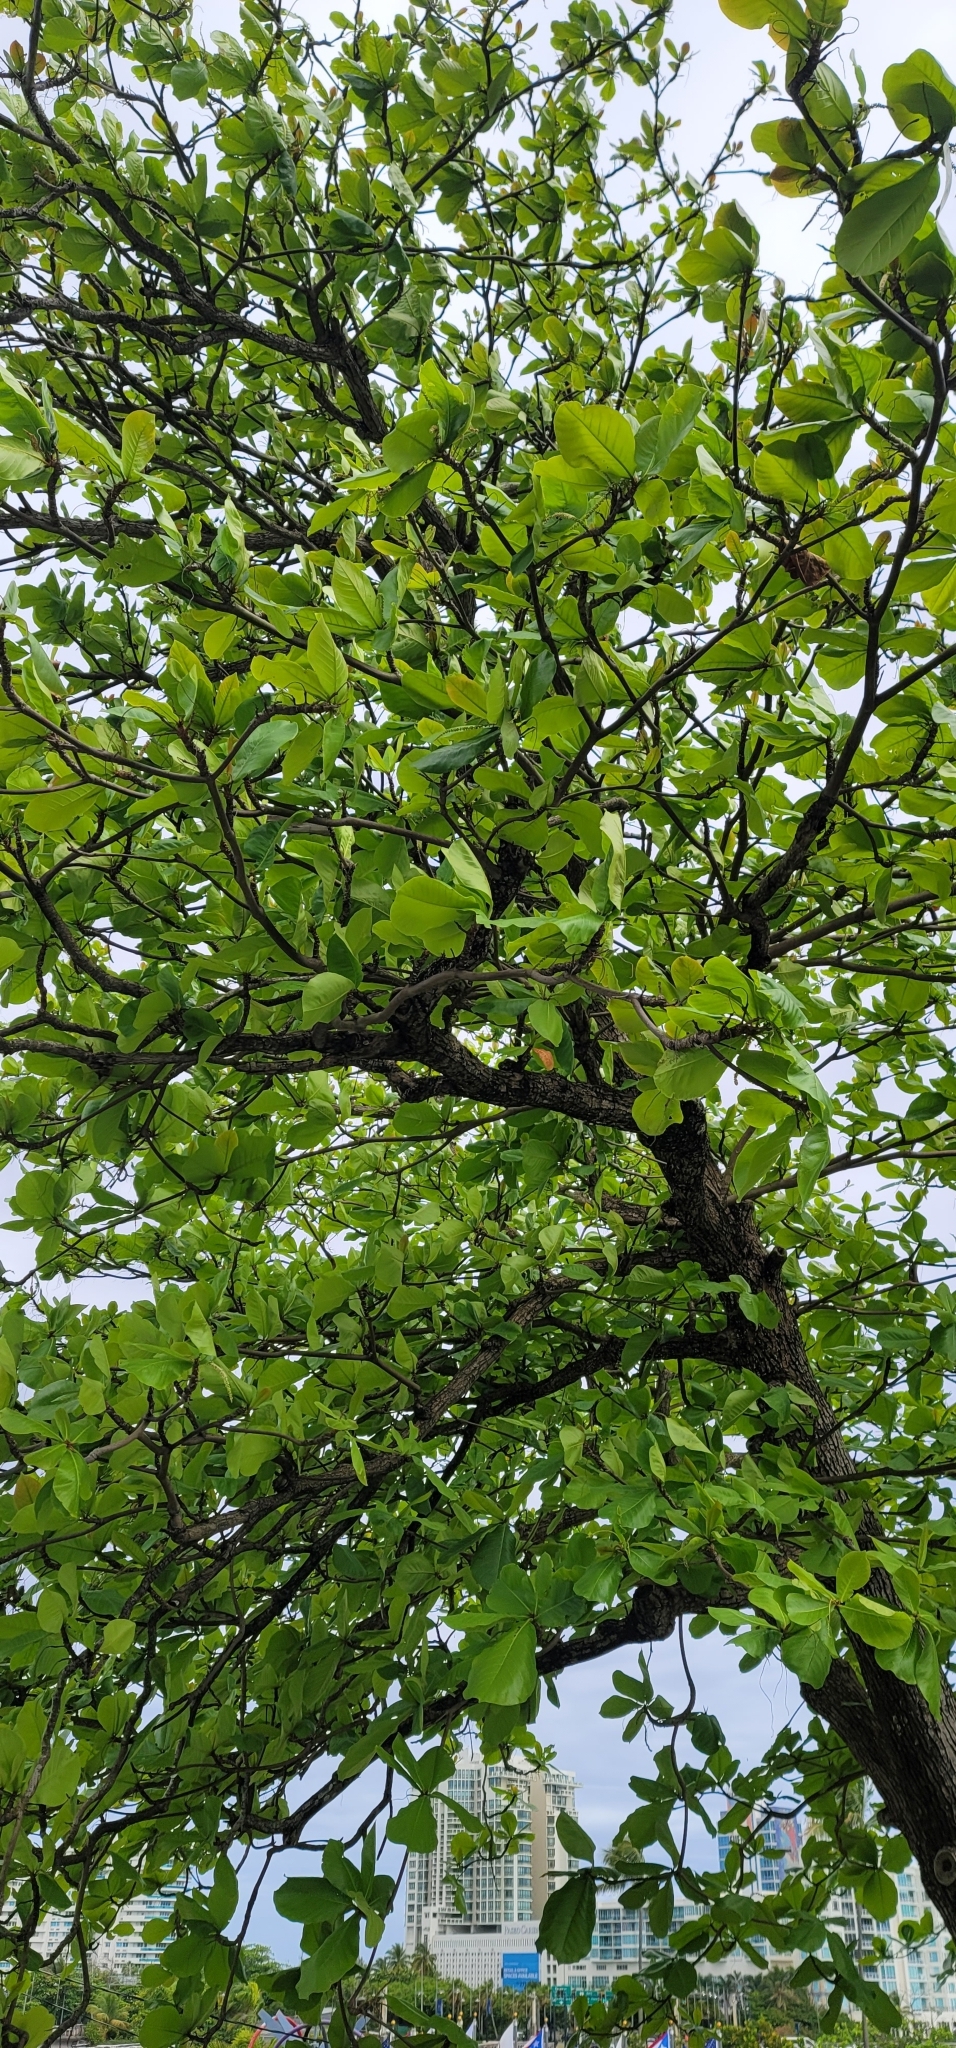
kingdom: Plantae
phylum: Tracheophyta
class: Magnoliopsida
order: Myrtales
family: Combretaceae
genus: Terminalia
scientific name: Terminalia catappa
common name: Tropical almond
